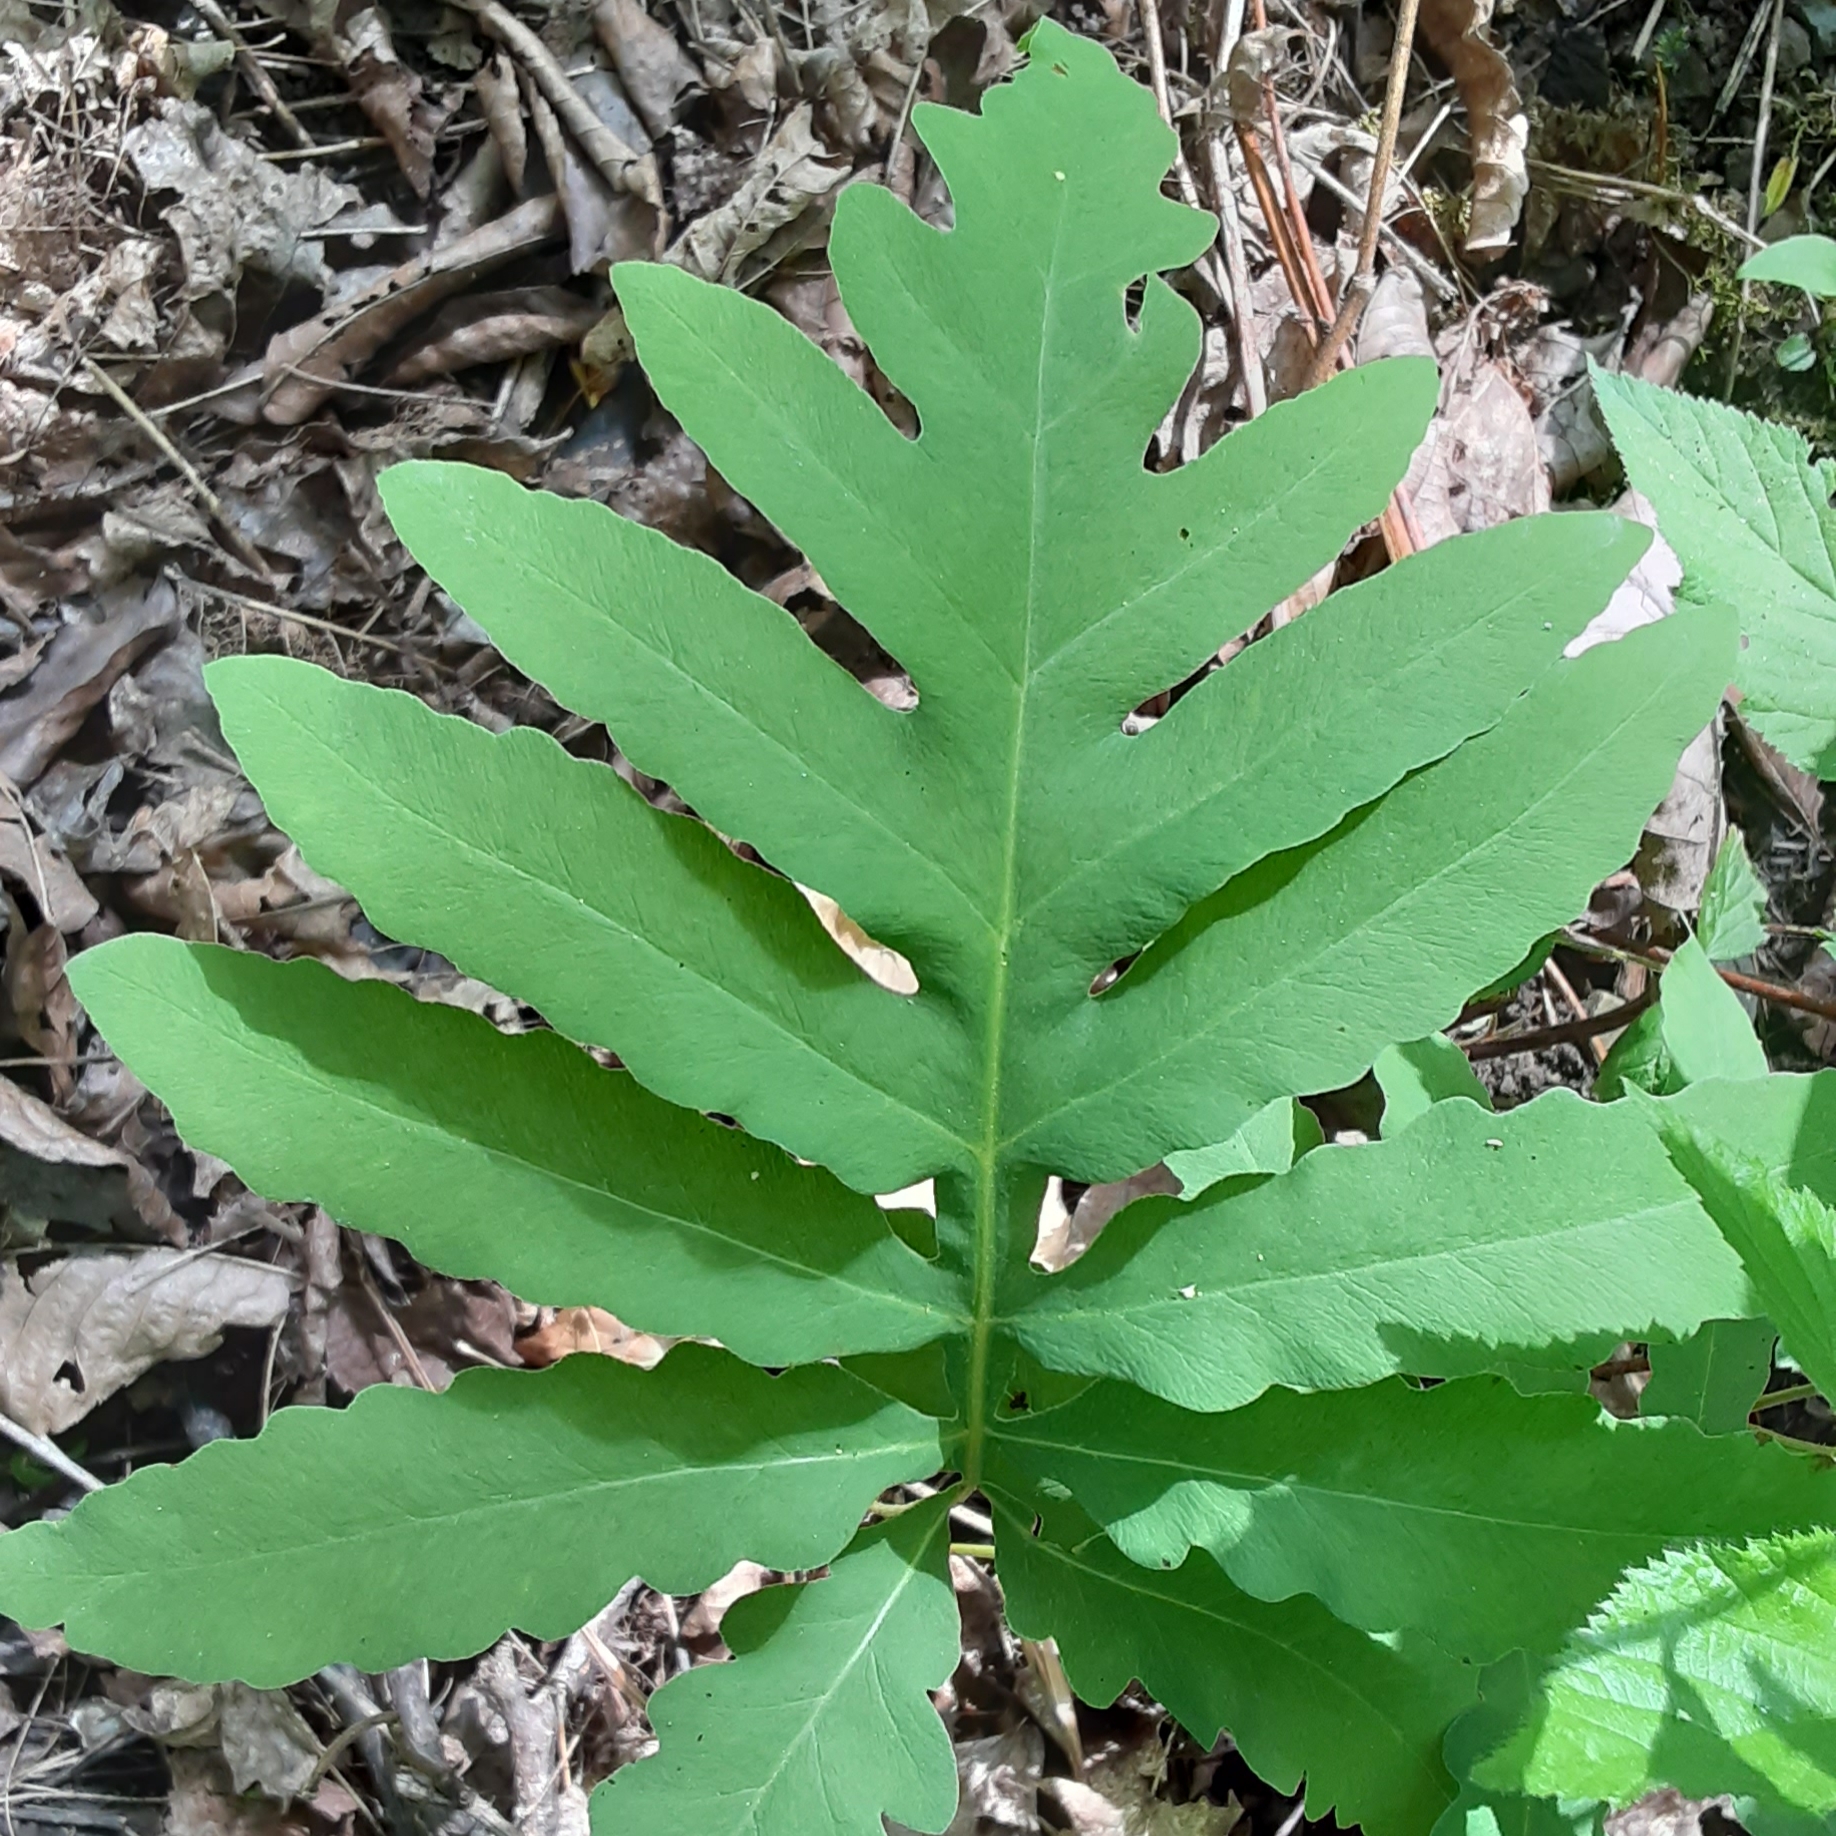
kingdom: Plantae
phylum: Tracheophyta
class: Polypodiopsida
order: Polypodiales
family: Onocleaceae
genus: Onoclea
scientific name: Onoclea sensibilis
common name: Sensitive fern
